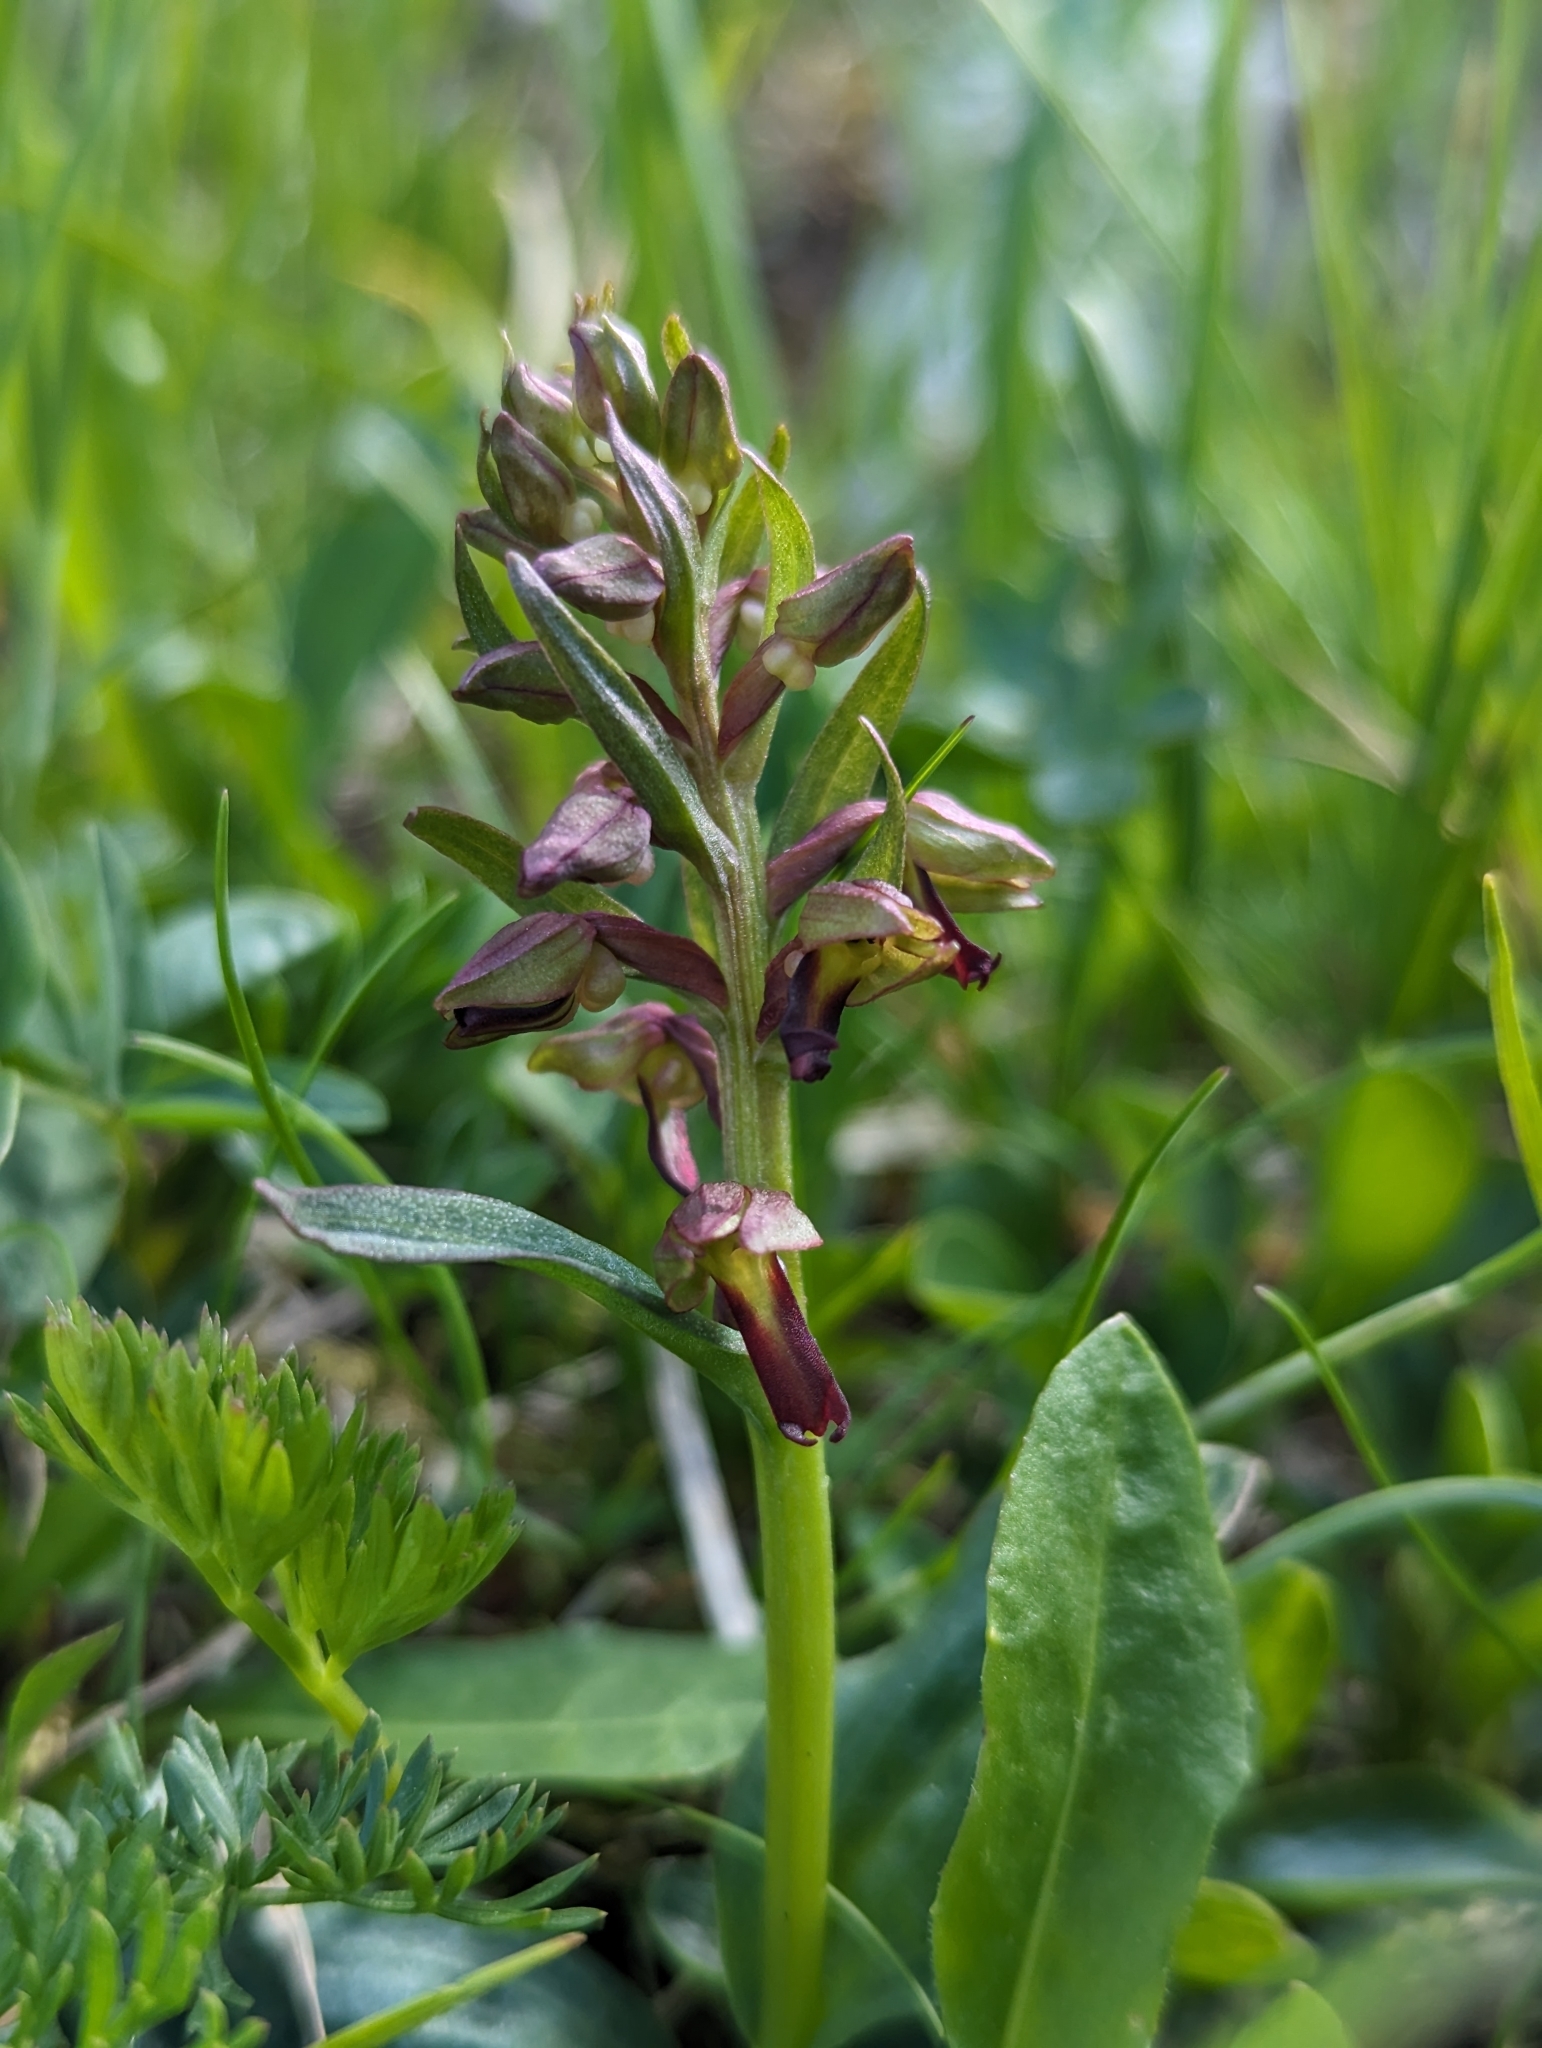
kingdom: Plantae
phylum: Tracheophyta
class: Liliopsida
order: Asparagales
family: Orchidaceae
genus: Dactylorhiza
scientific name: Dactylorhiza viridis
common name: Longbract frog orchid
